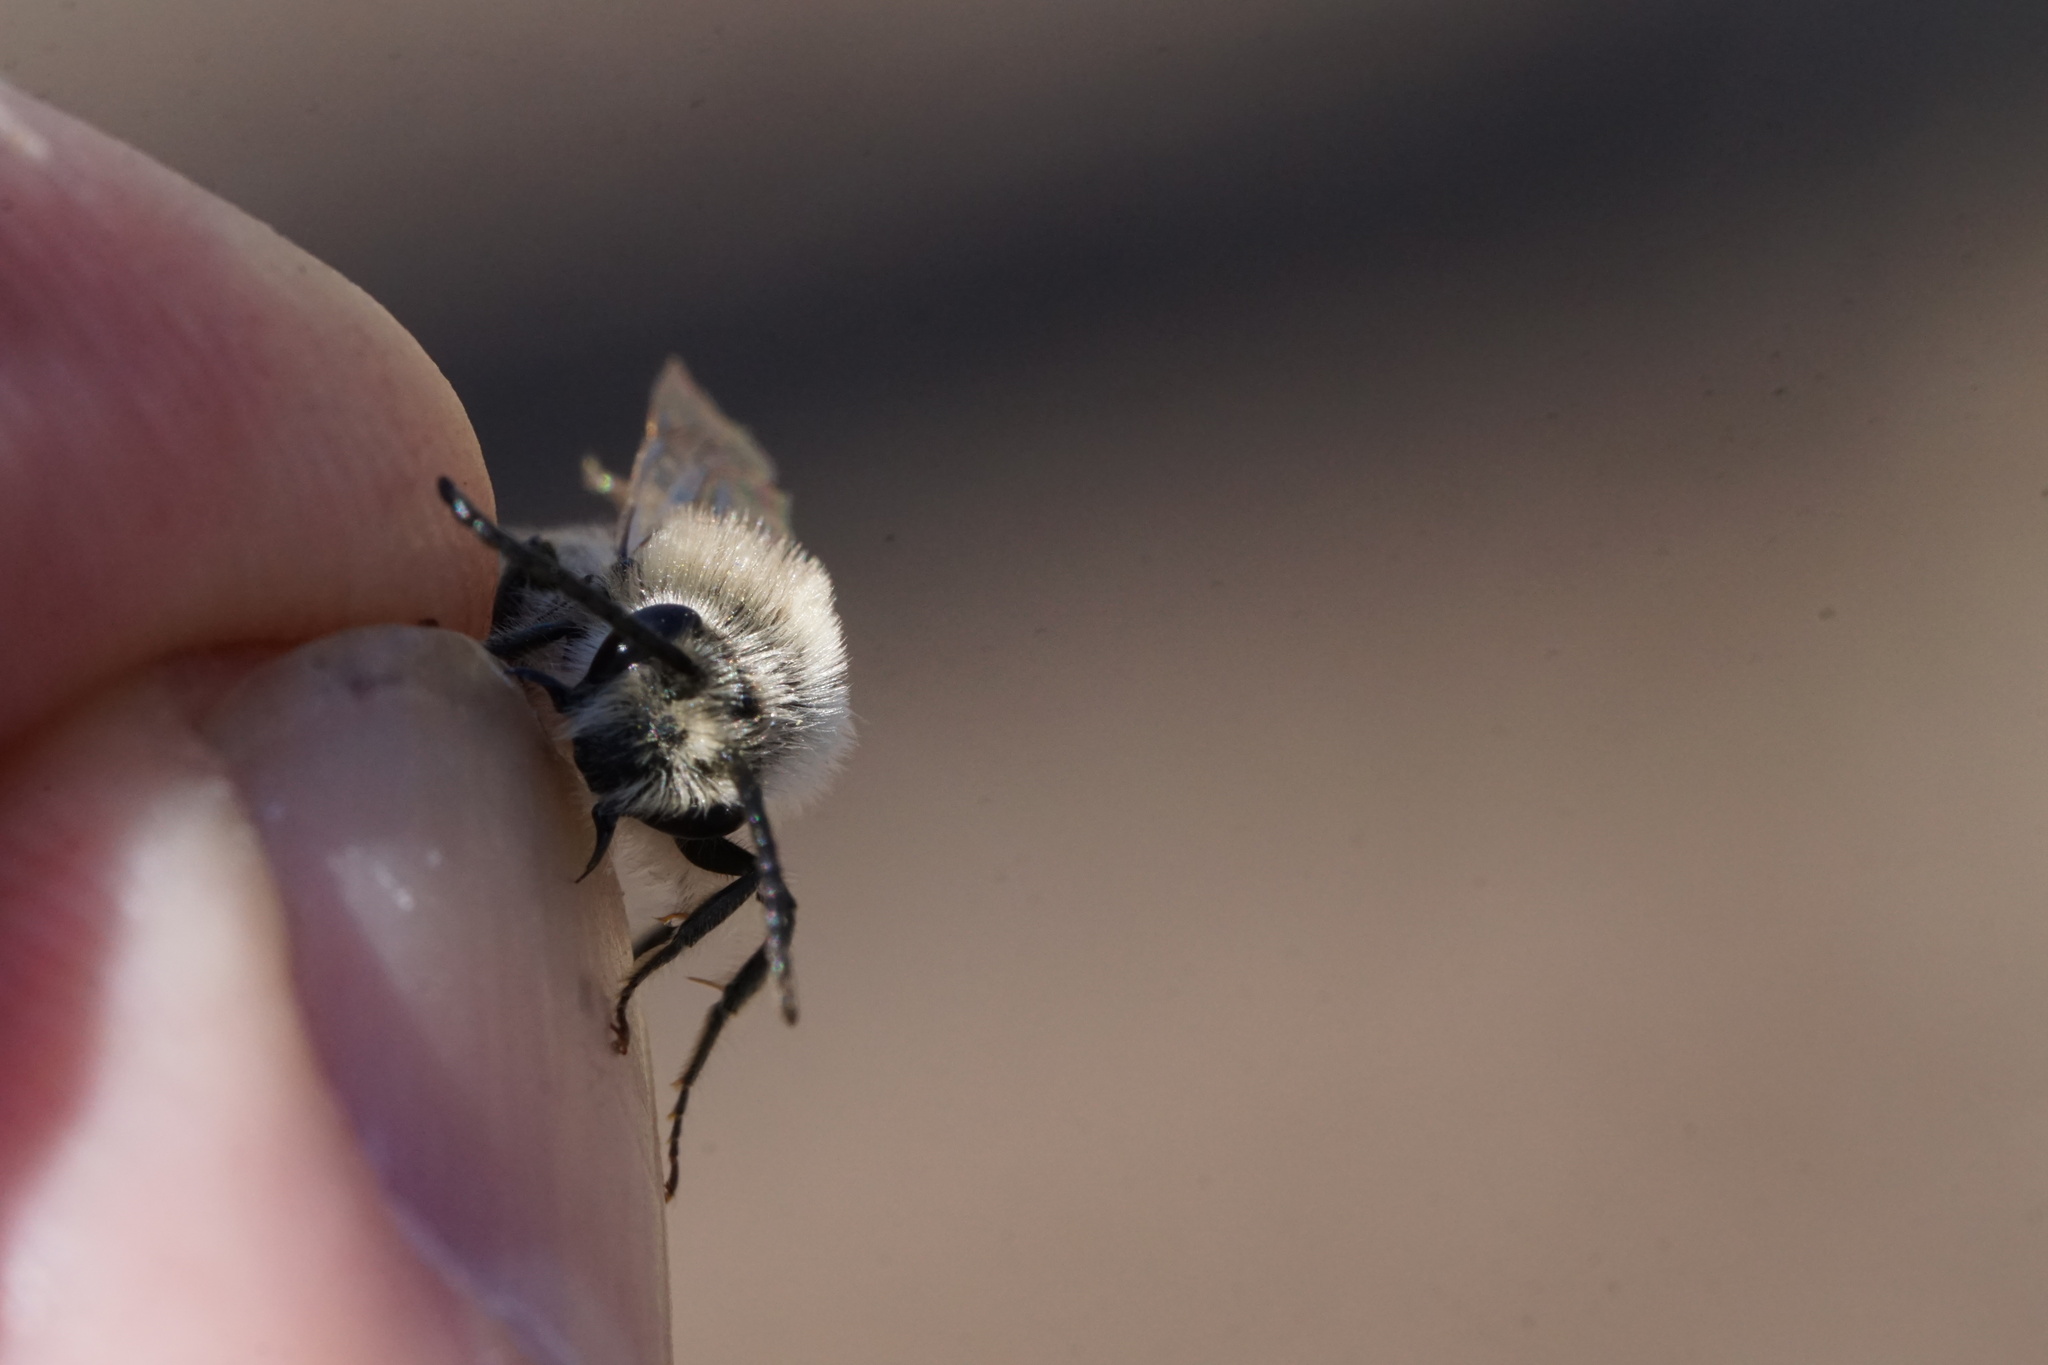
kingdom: Animalia
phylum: Arthropoda
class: Insecta
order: Hymenoptera
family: Colletidae
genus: Colletes
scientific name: Colletes inaequalis
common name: Unequal cellophane bee
